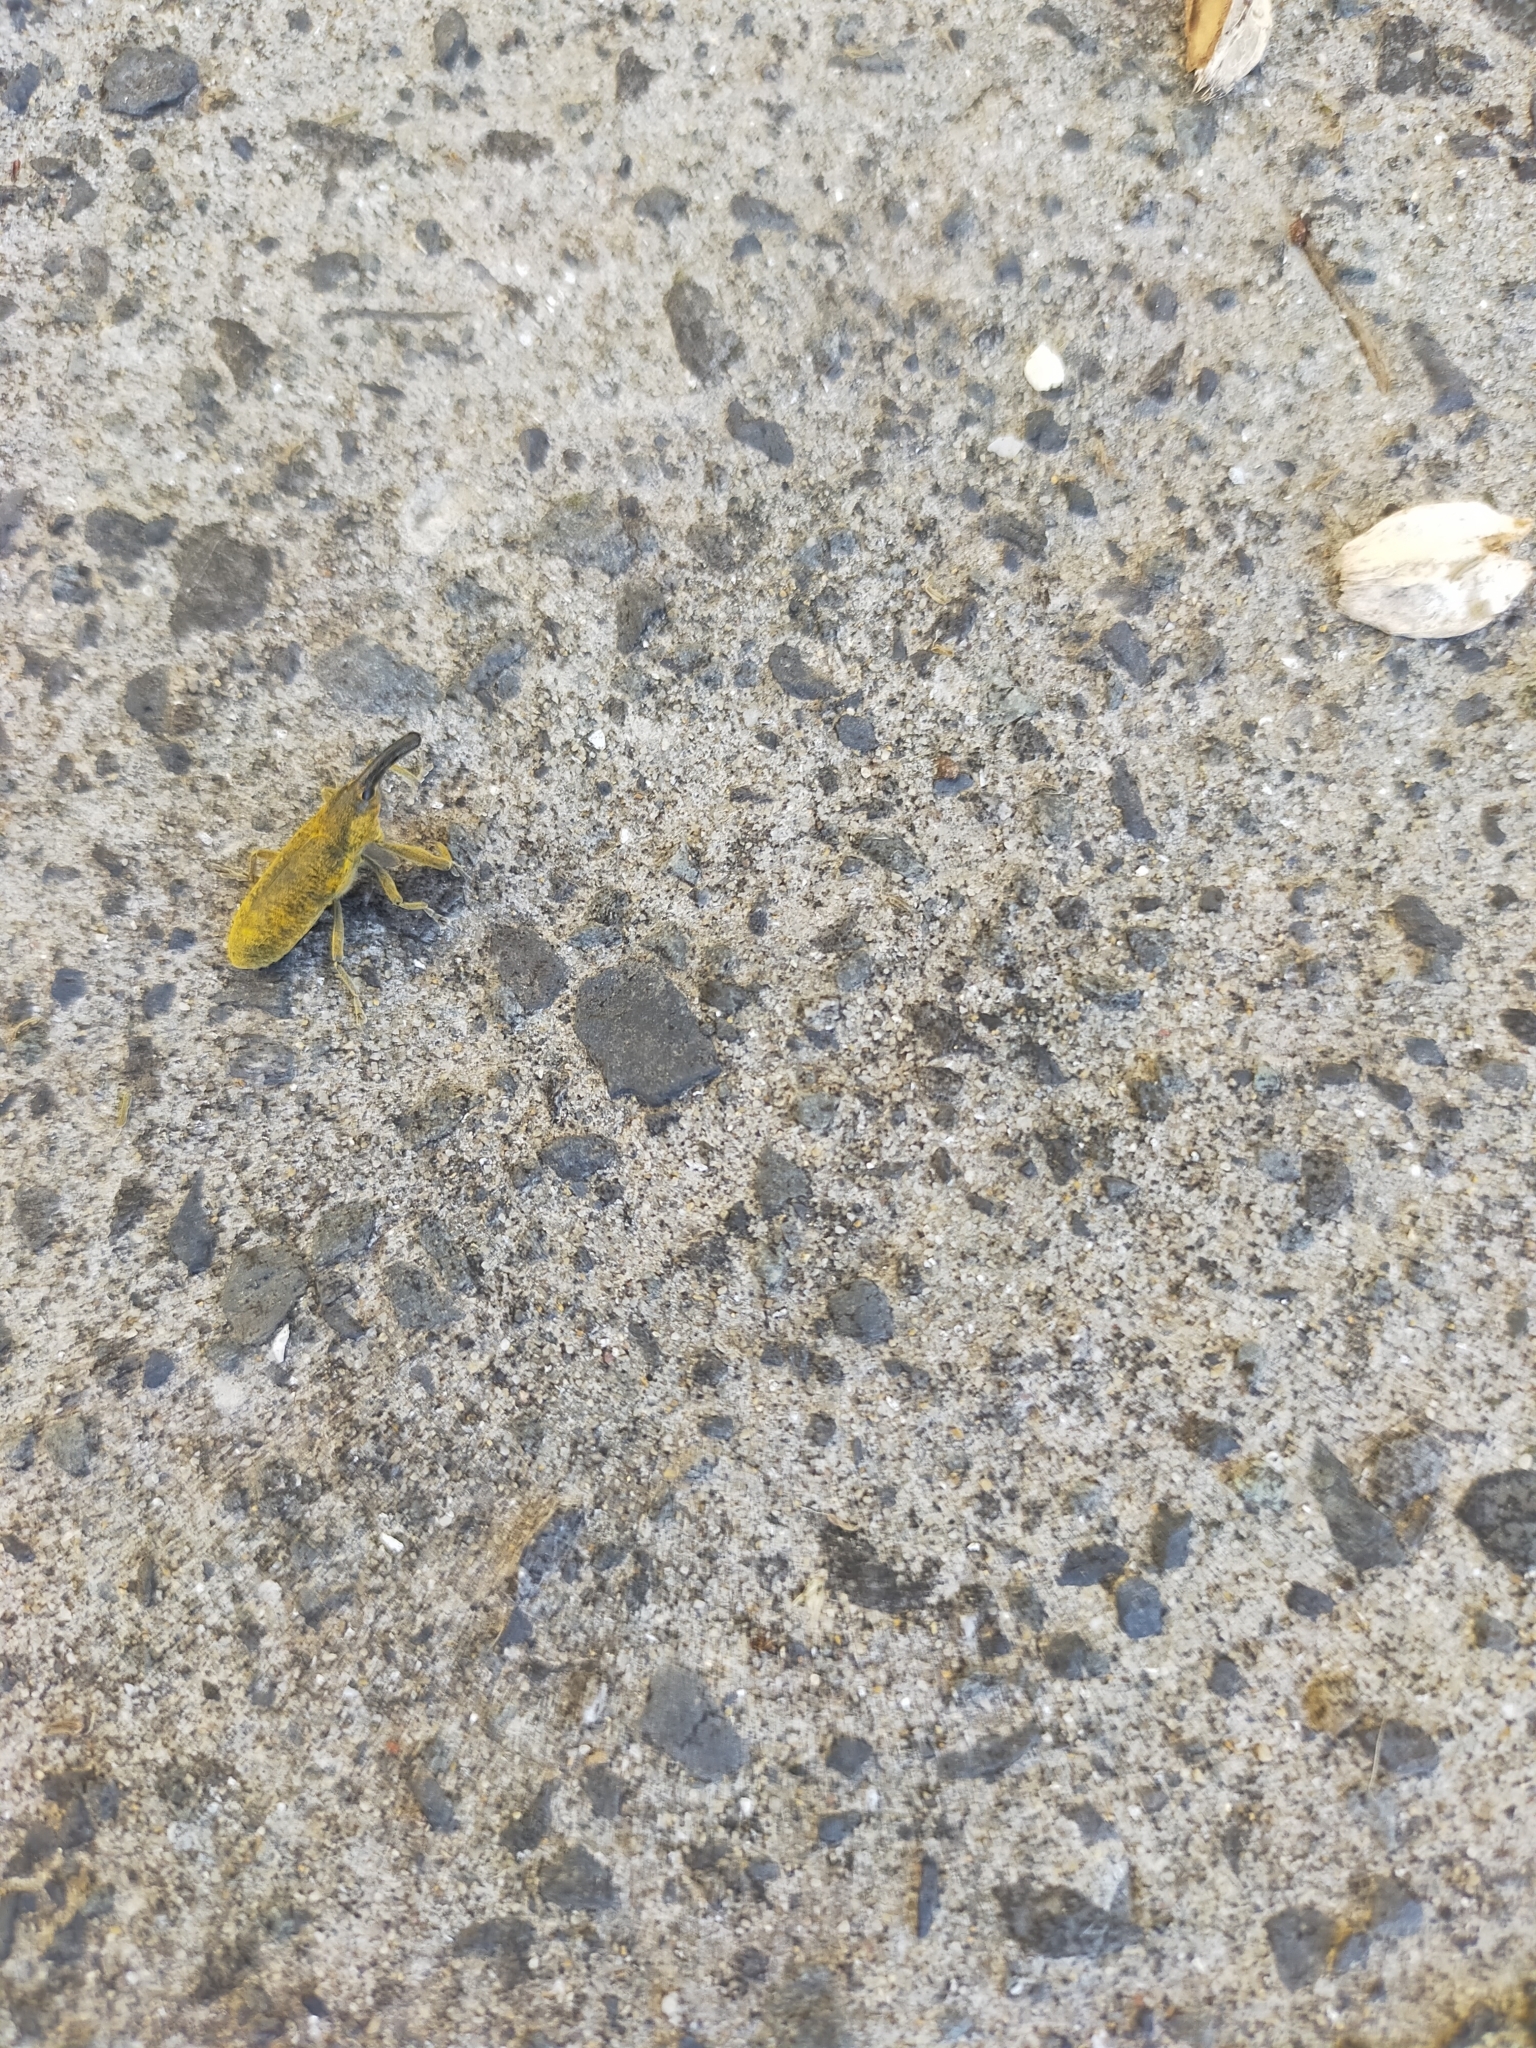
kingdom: Animalia
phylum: Arthropoda
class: Insecta
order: Coleoptera
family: Curculionidae
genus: Lixus
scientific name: Lixus pulverulentus
